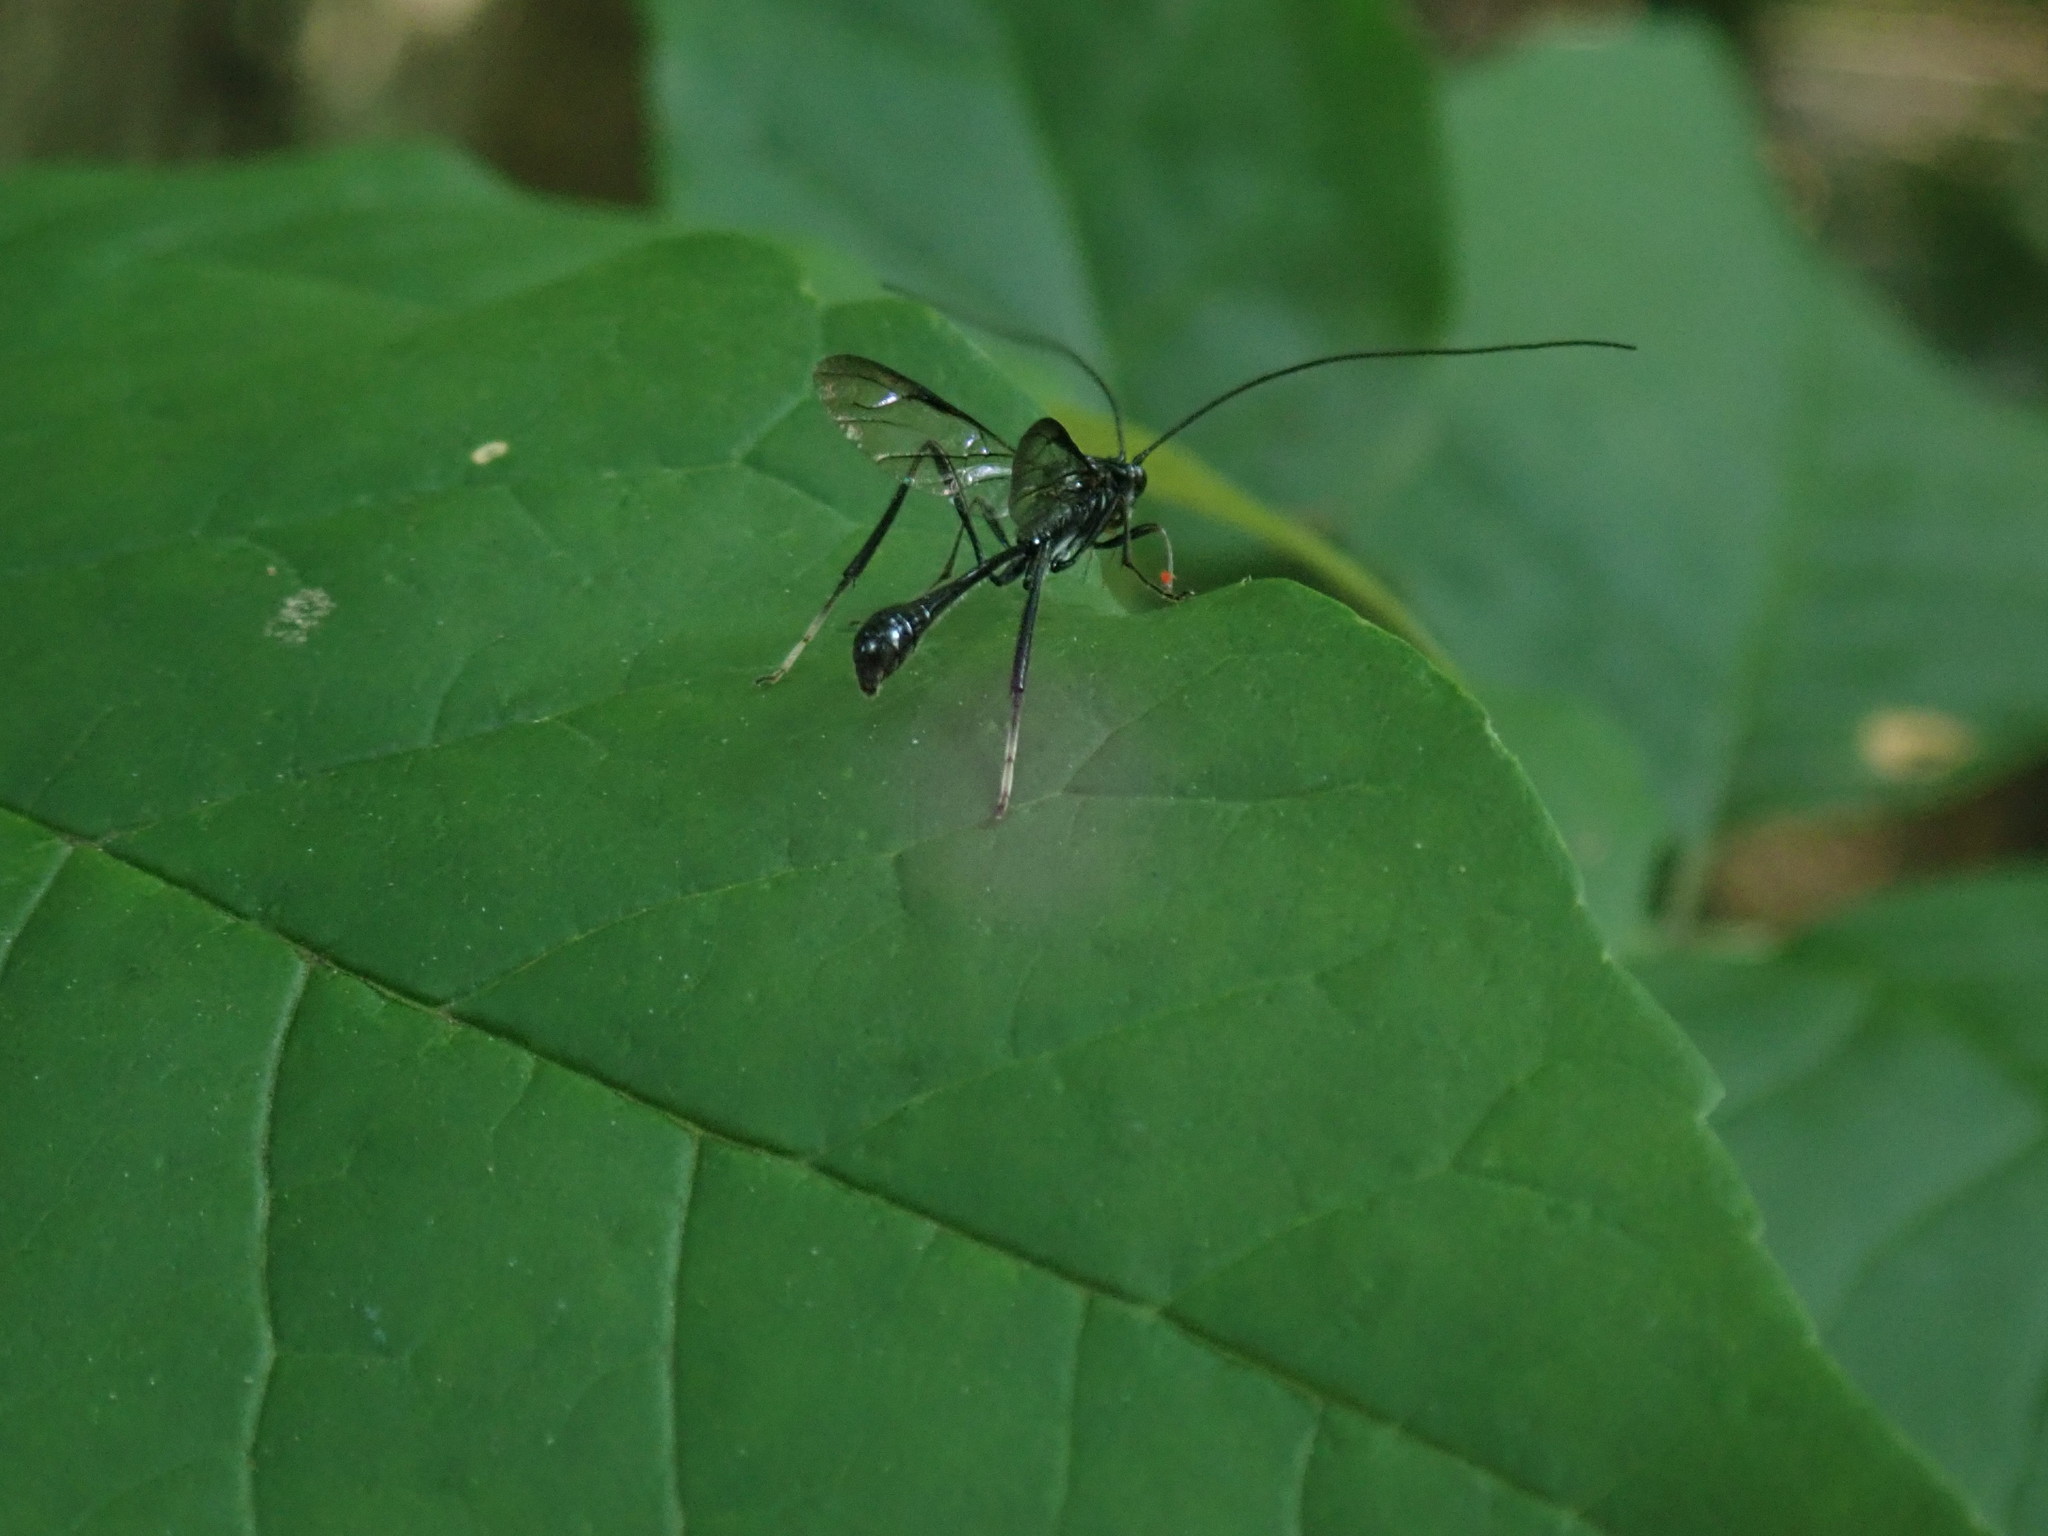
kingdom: Animalia
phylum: Arthropoda
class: Insecta
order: Hymenoptera
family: Pelecinidae
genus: Pelecinus
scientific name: Pelecinus polyturator
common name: American pelecinid wasp
